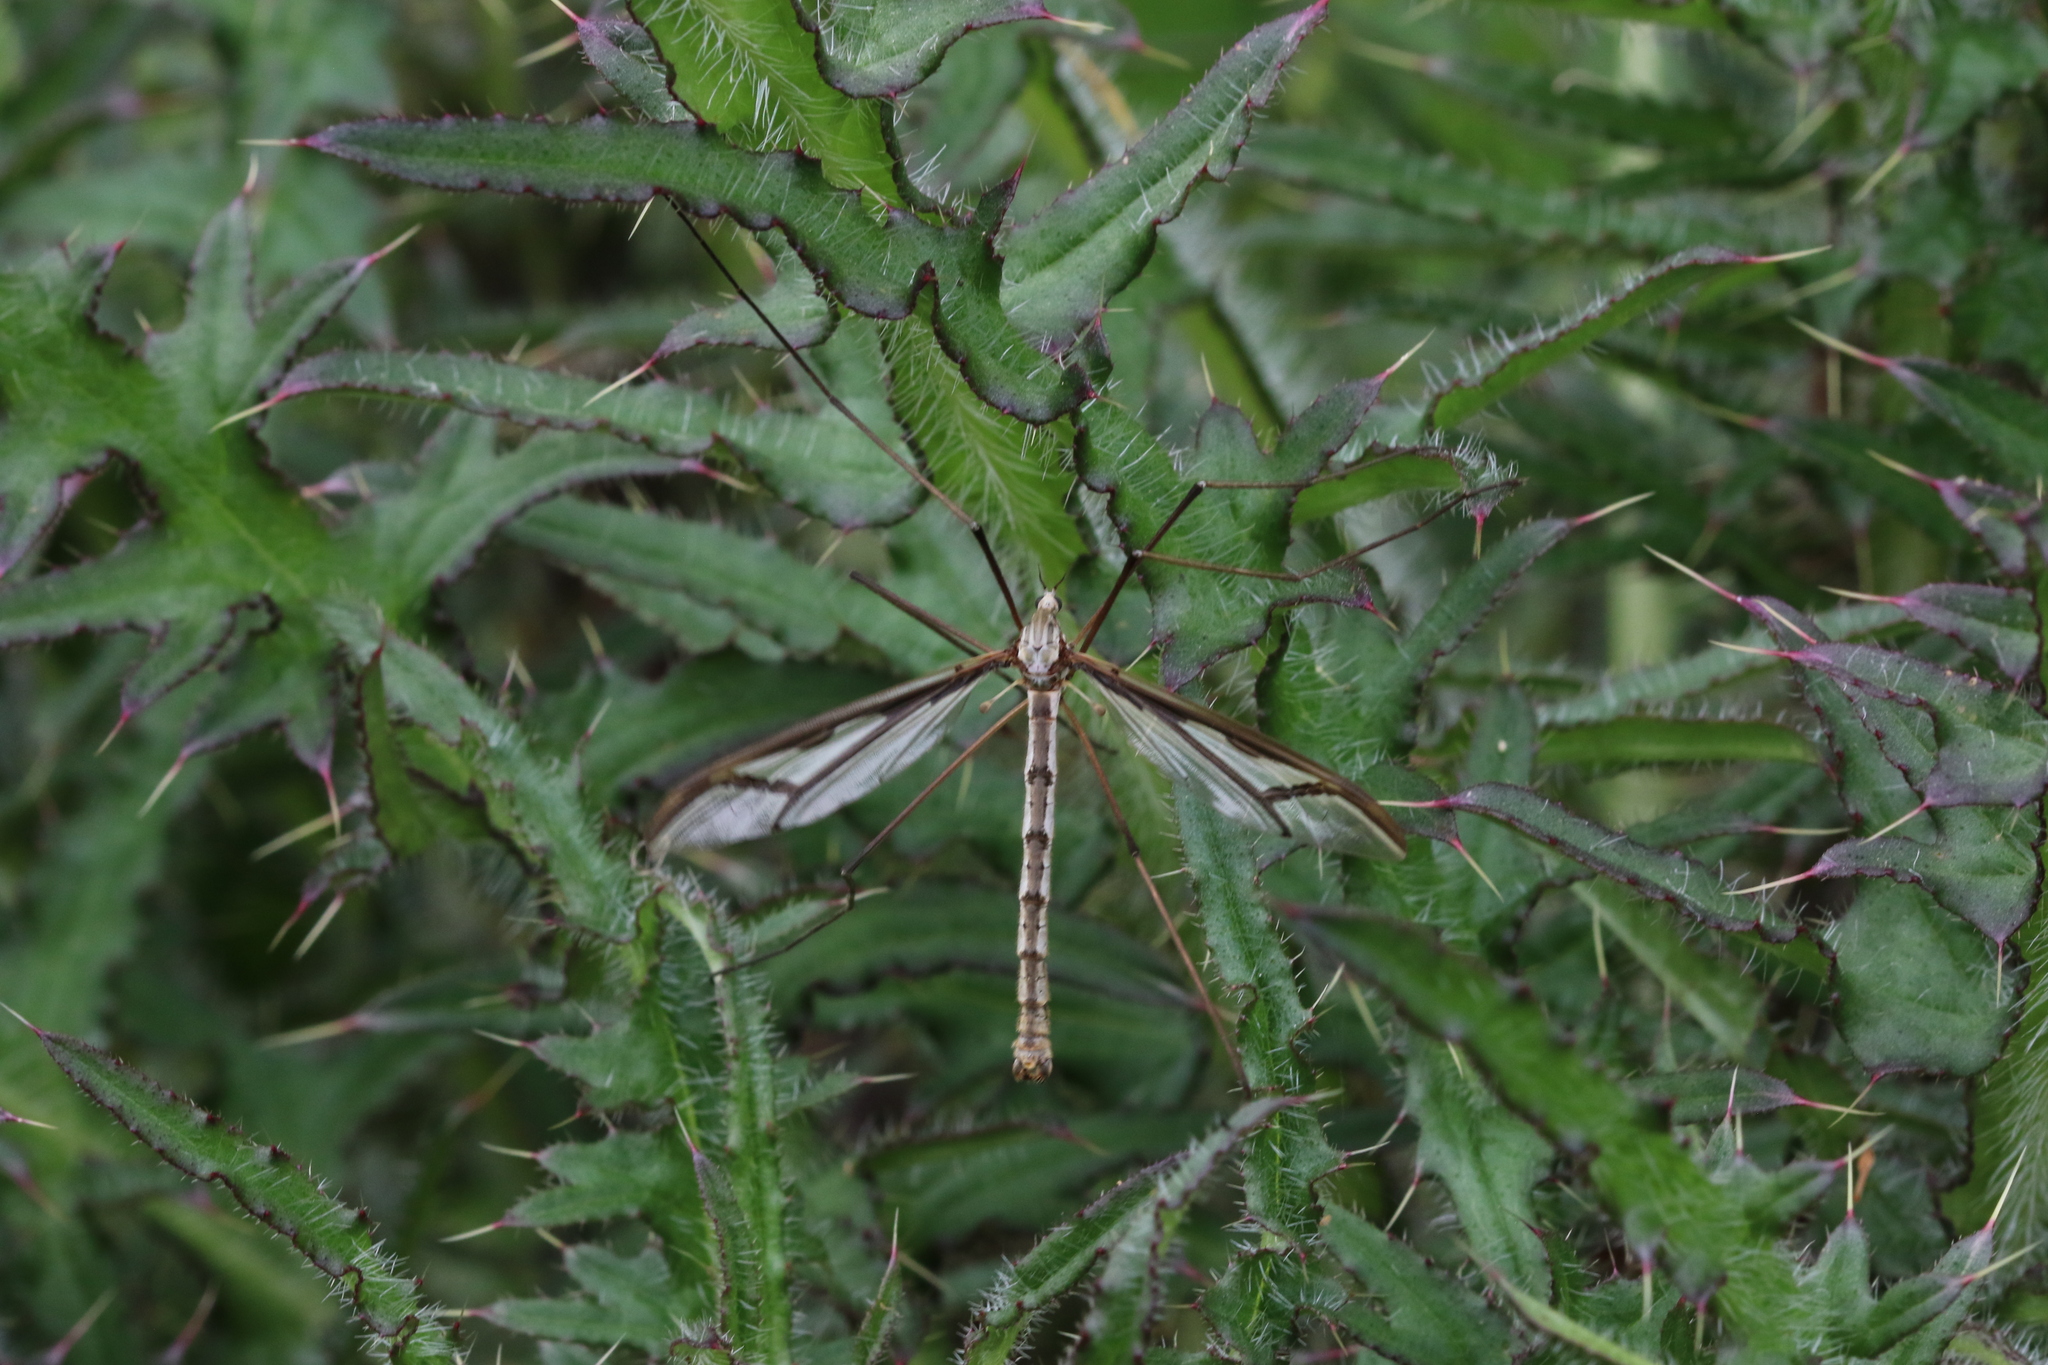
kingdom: Animalia
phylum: Arthropoda
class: Insecta
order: Diptera
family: Pediciidae
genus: Pedicia
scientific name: Pedicia rivosa
